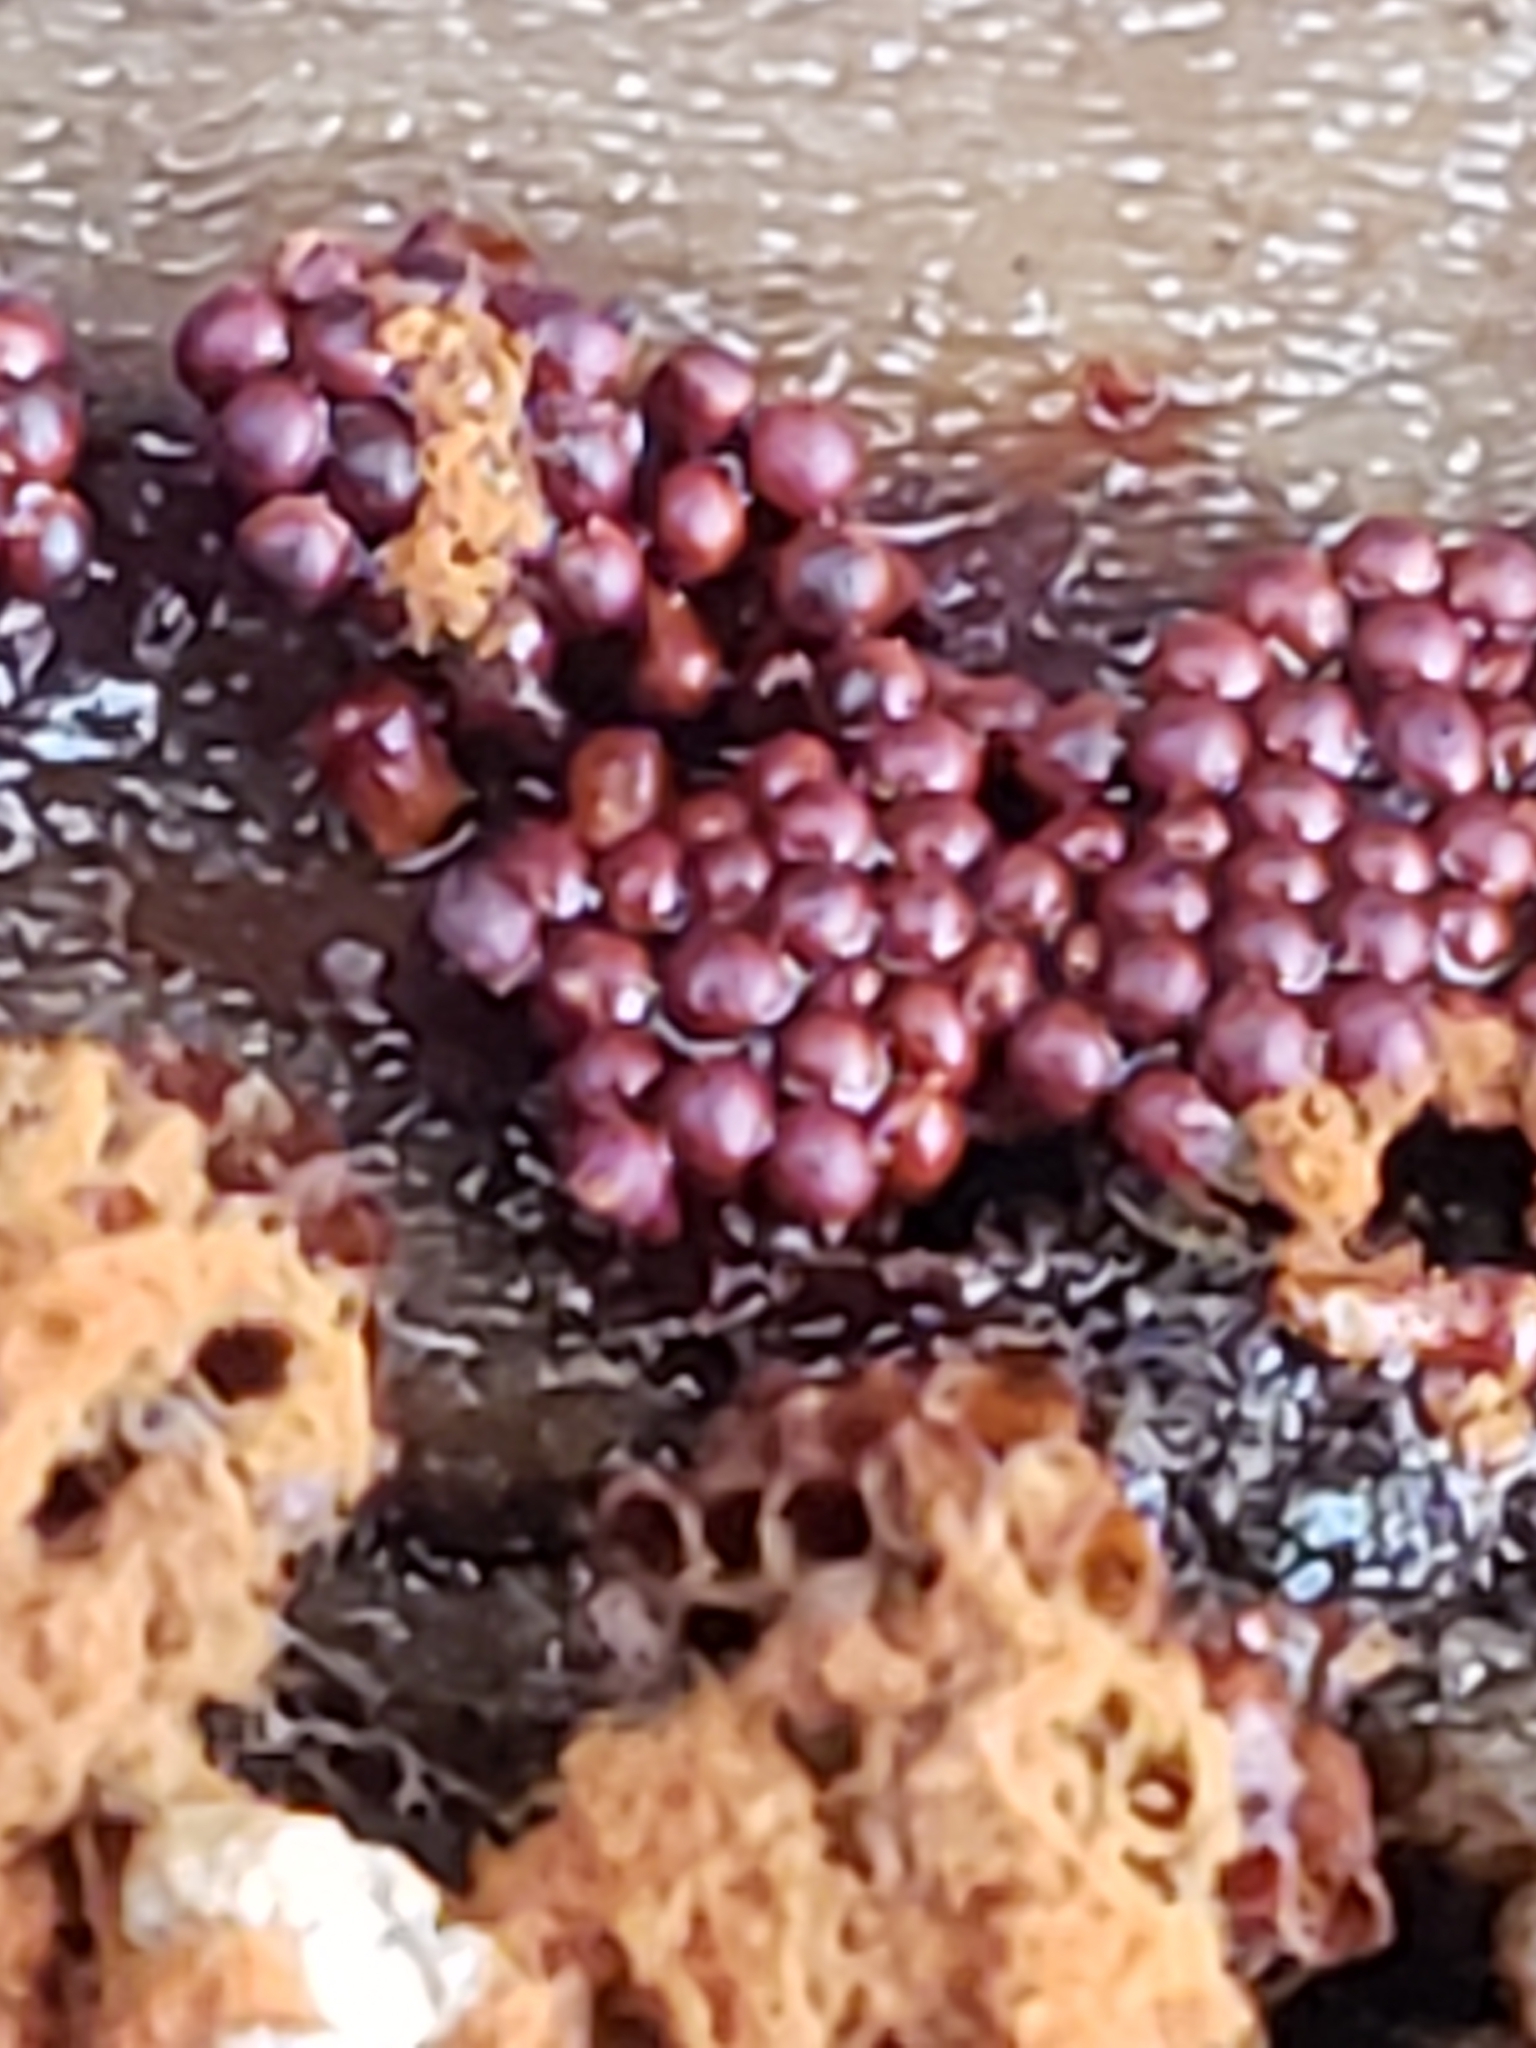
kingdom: Protozoa
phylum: Mycetozoa
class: Myxomycetes
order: Trichiales
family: Trichiaceae
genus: Metatrichia
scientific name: Metatrichia vesparia
